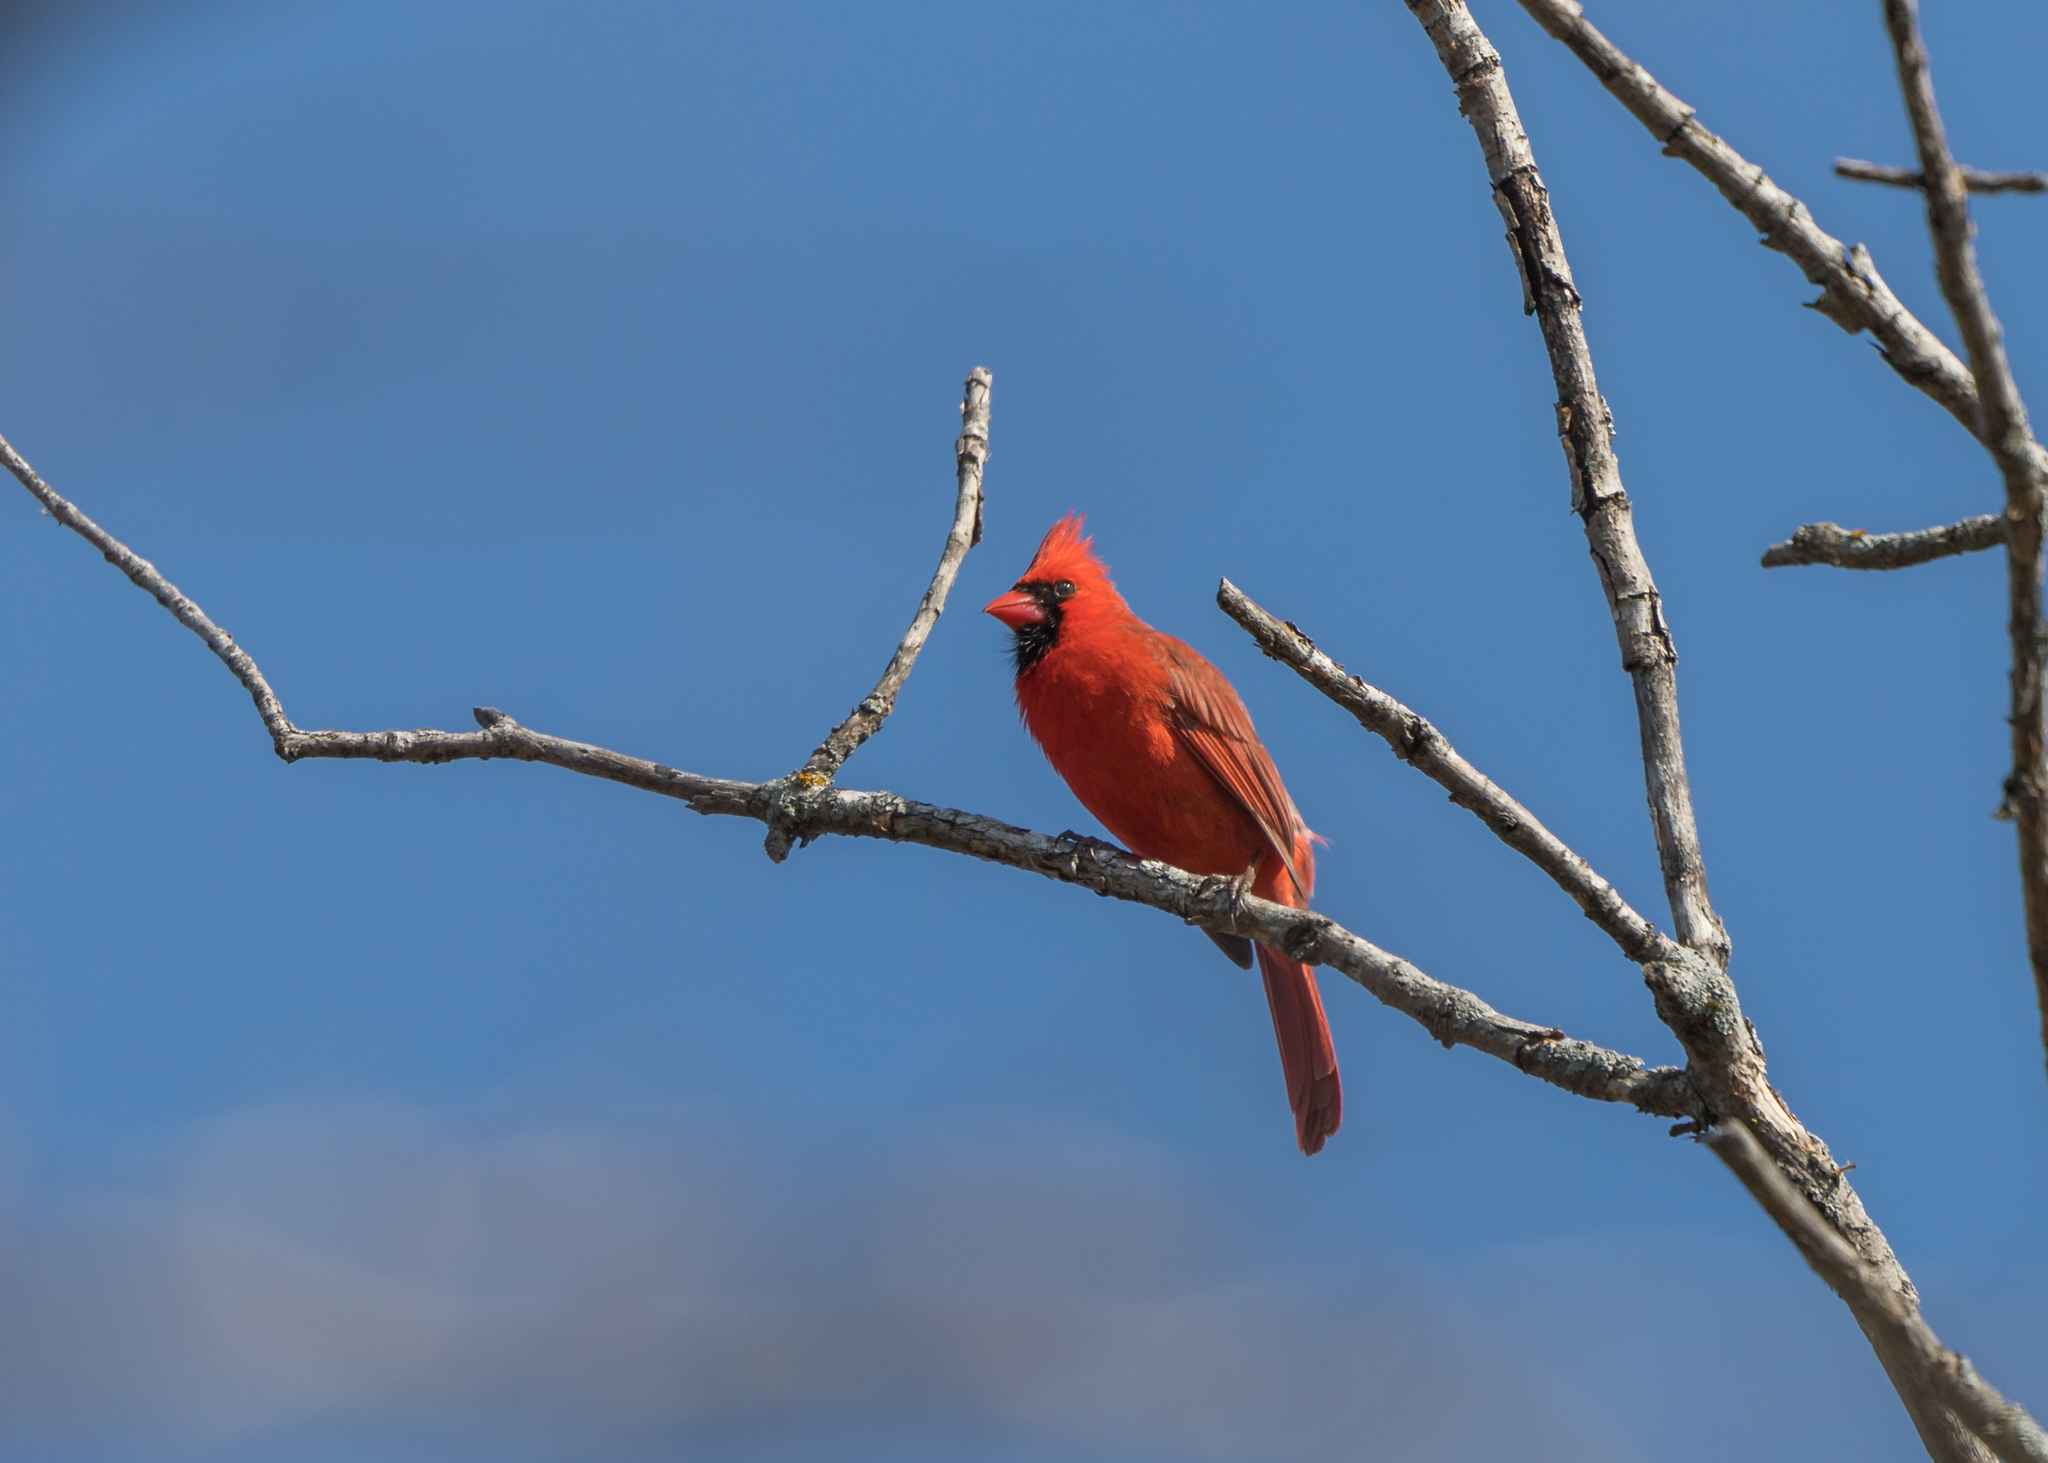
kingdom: Animalia
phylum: Chordata
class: Aves
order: Passeriformes
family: Cardinalidae
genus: Cardinalis
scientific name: Cardinalis cardinalis
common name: Northern cardinal
